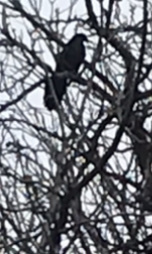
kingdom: Animalia
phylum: Chordata
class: Aves
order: Passeriformes
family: Icteridae
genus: Quiscalus
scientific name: Quiscalus mexicanus
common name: Great-tailed grackle
